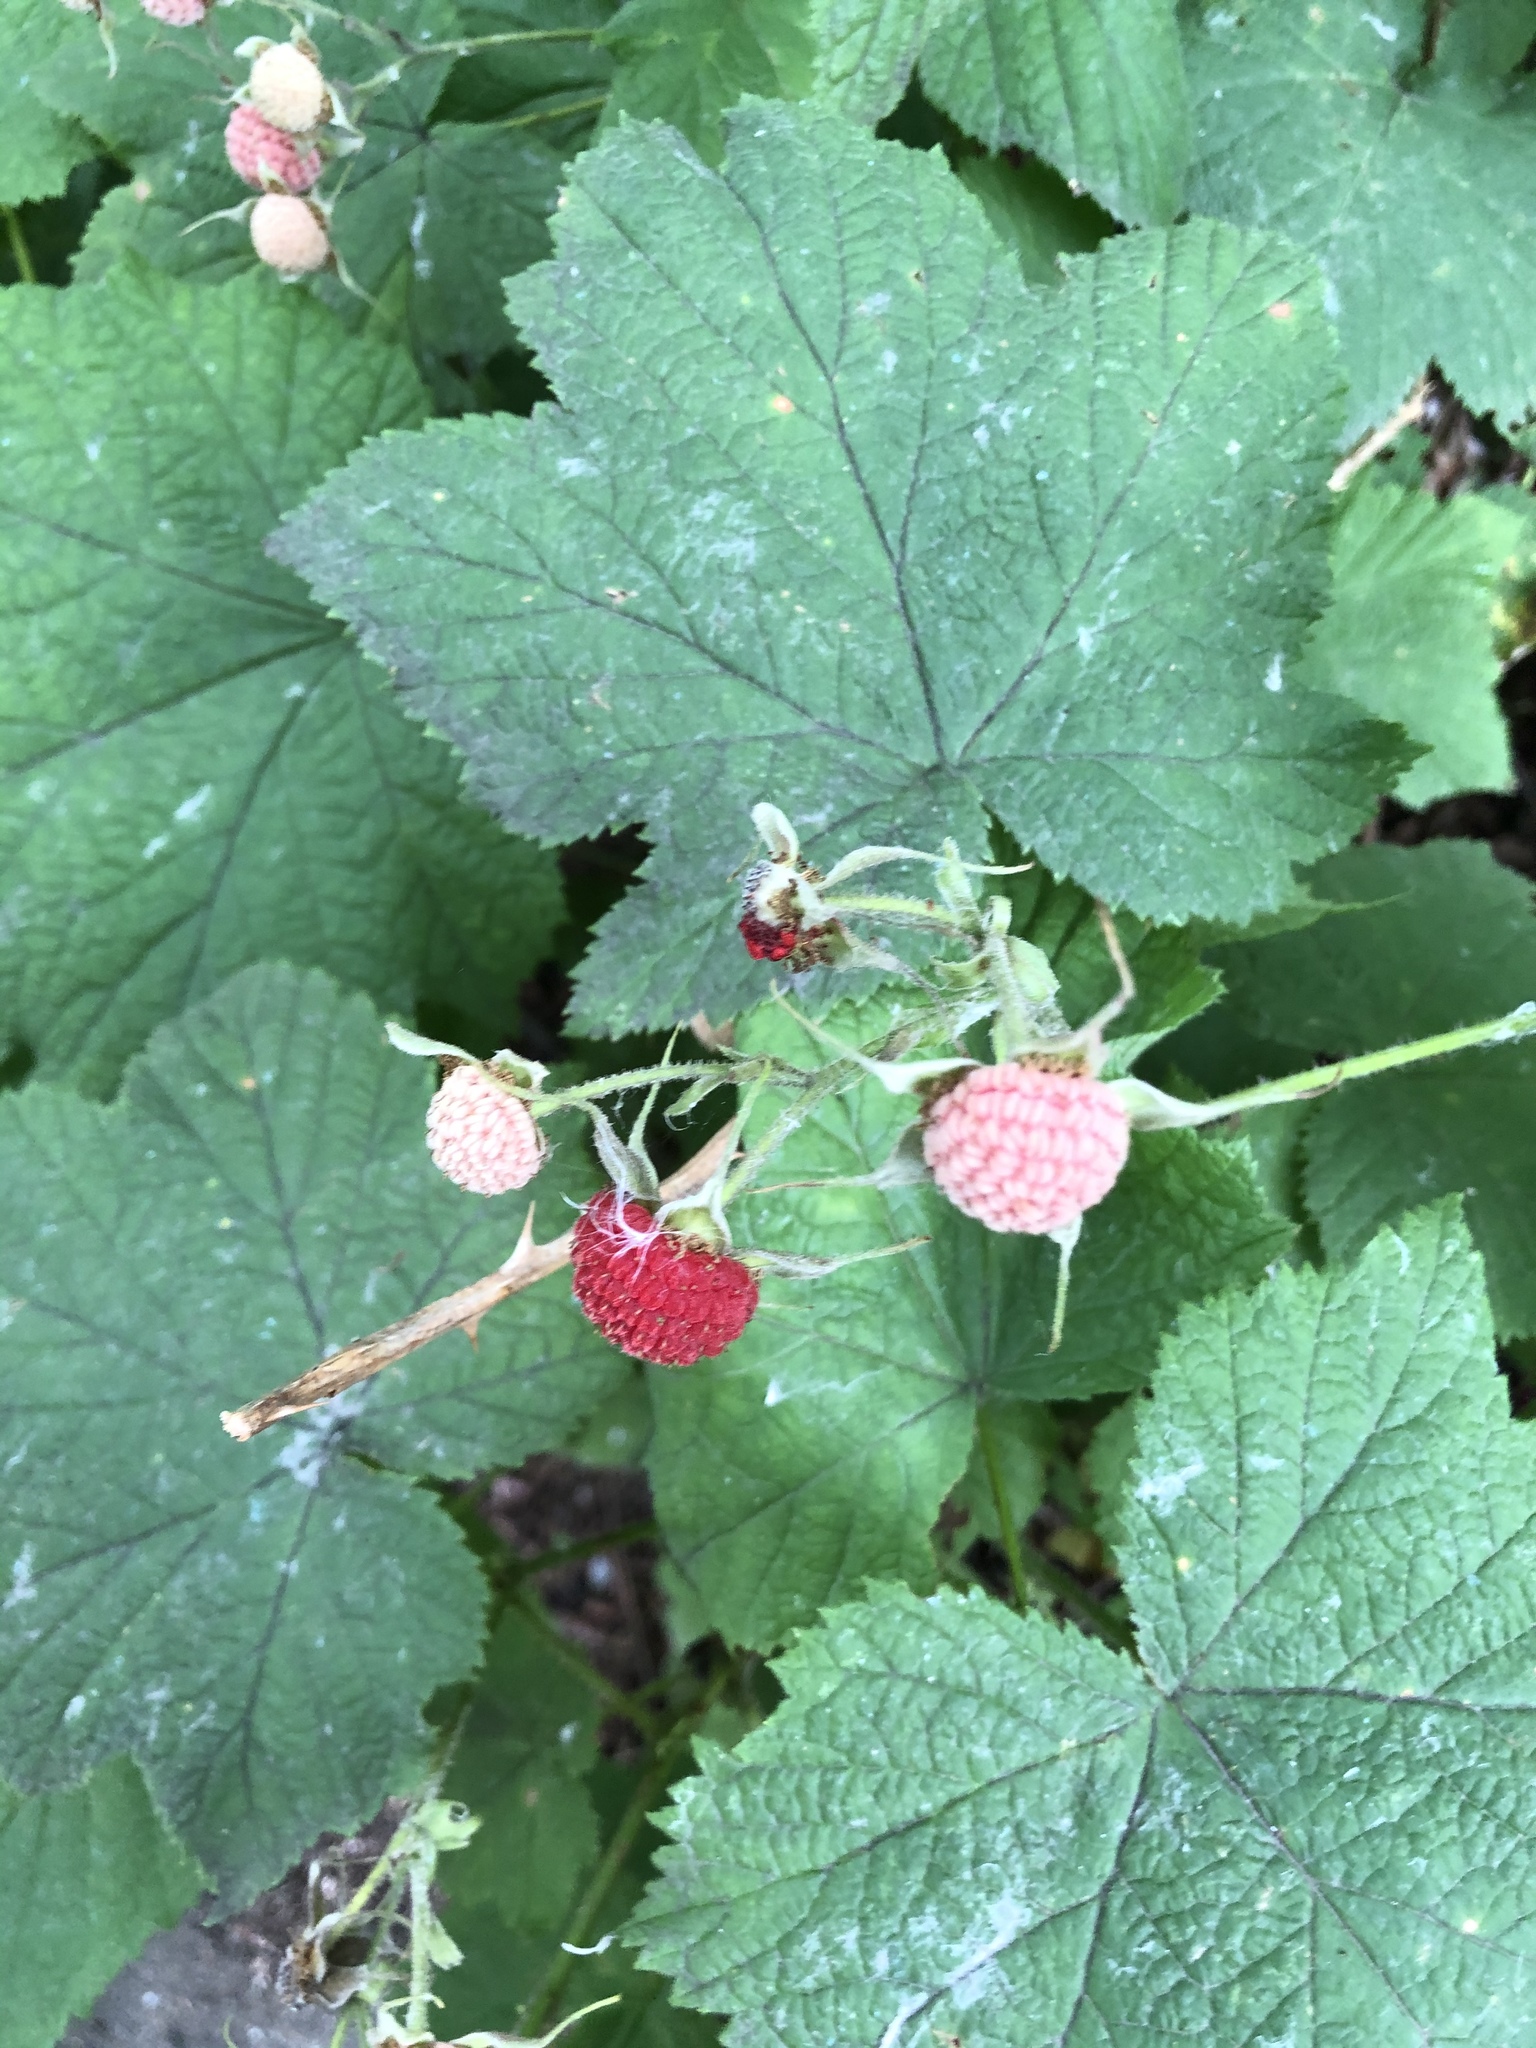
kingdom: Plantae
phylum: Tracheophyta
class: Magnoliopsida
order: Rosales
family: Rosaceae
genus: Rubus
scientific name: Rubus parviflorus
